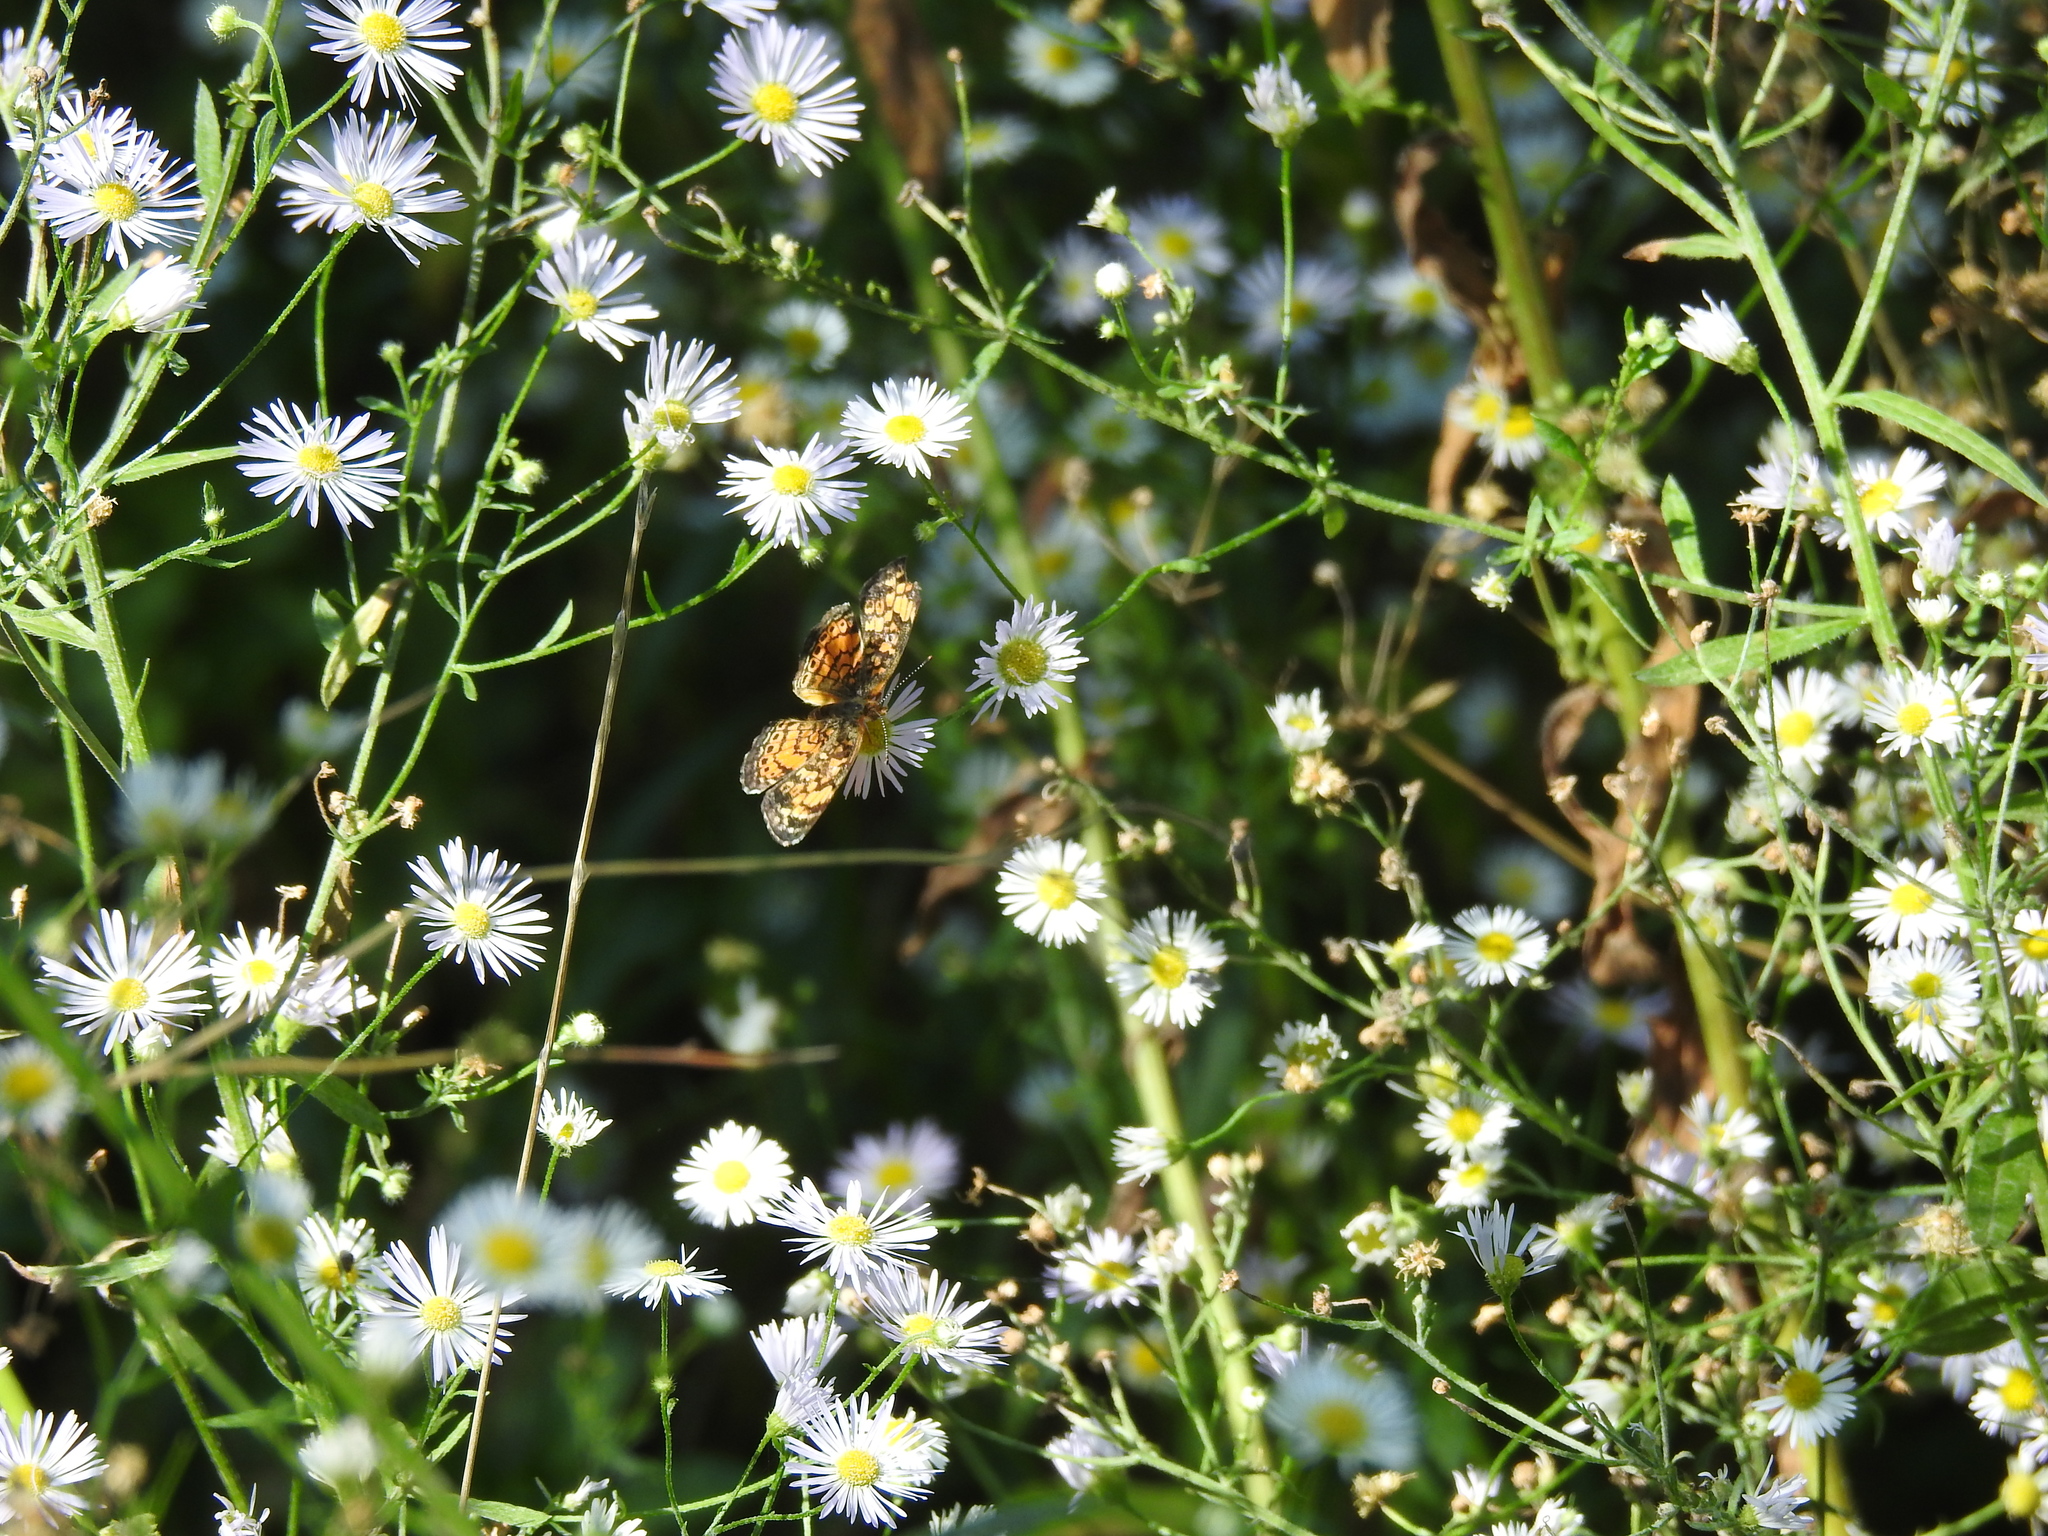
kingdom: Animalia
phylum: Arthropoda
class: Insecta
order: Lepidoptera
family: Nymphalidae
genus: Phyciodes
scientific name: Phyciodes tharos
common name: Pearl crescent
